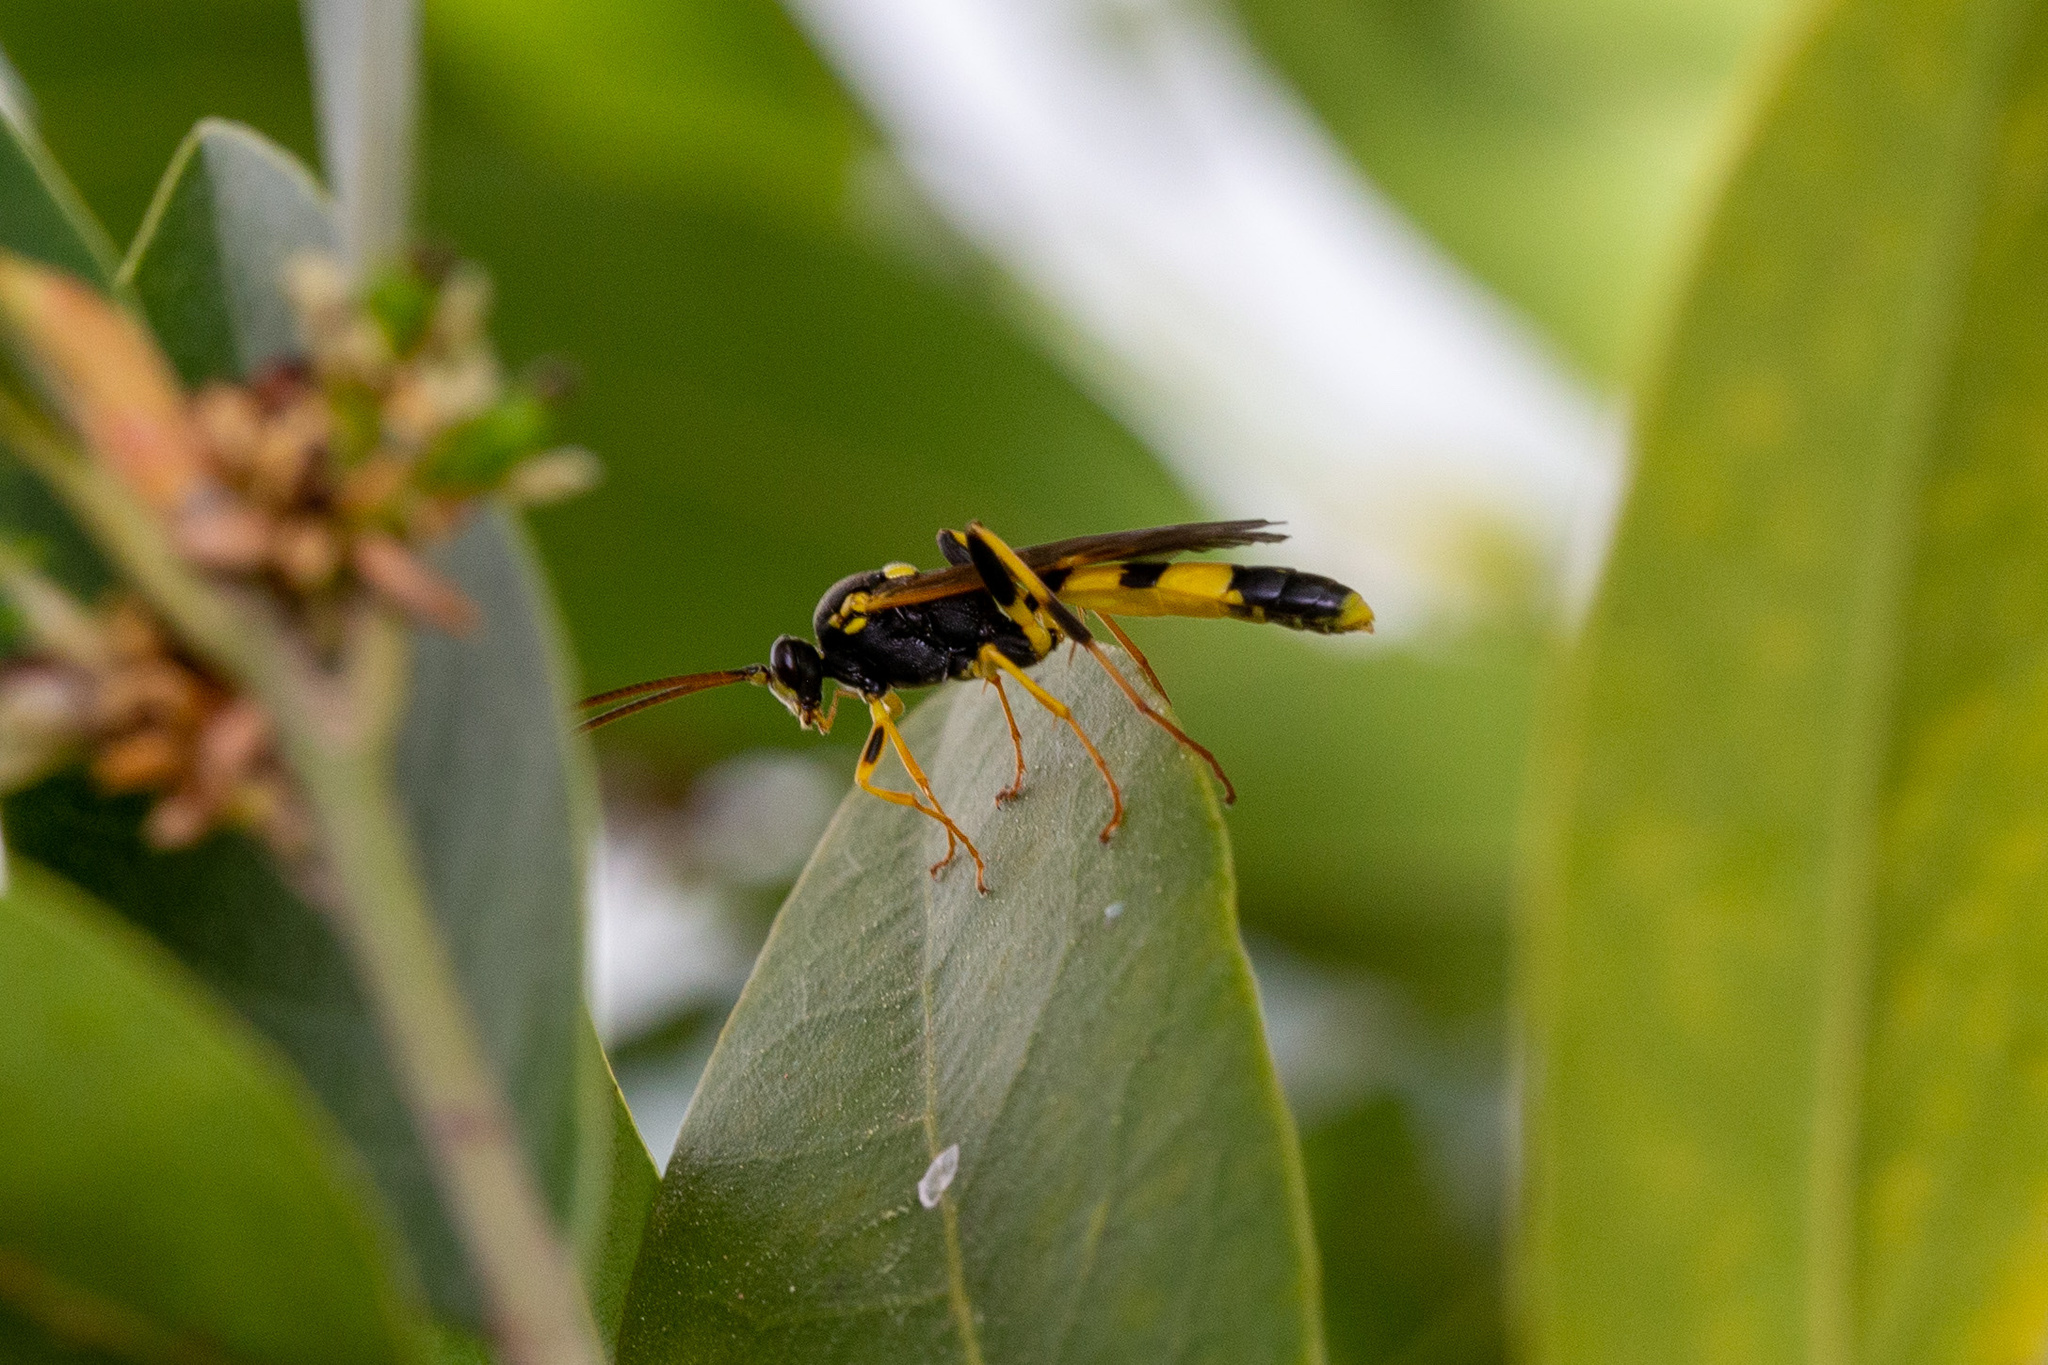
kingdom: Animalia
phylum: Arthropoda
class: Insecta
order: Hymenoptera
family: Ichneumonidae
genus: Amblyteles
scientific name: Amblyteles armatorius
